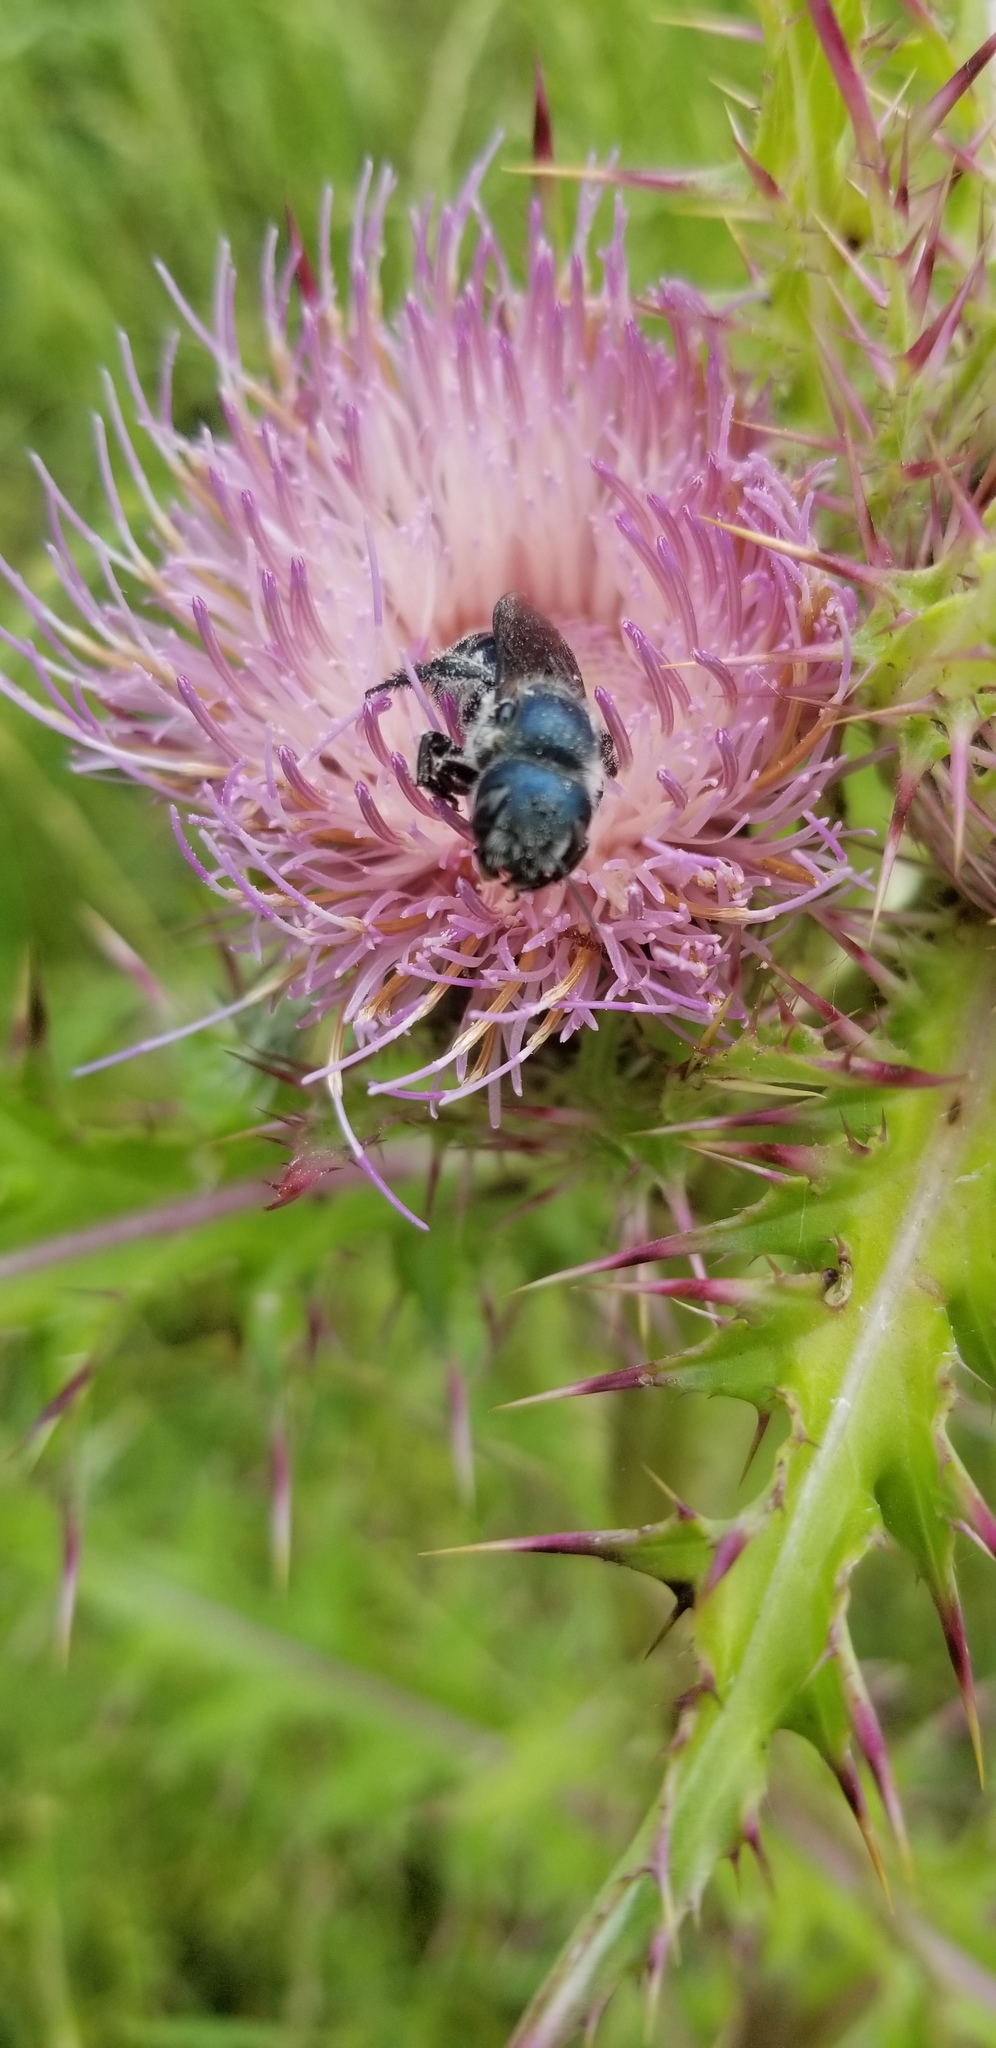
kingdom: Animalia
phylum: Arthropoda
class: Insecta
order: Hymenoptera
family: Megachilidae
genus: Osmia
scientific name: Osmia chalybea
